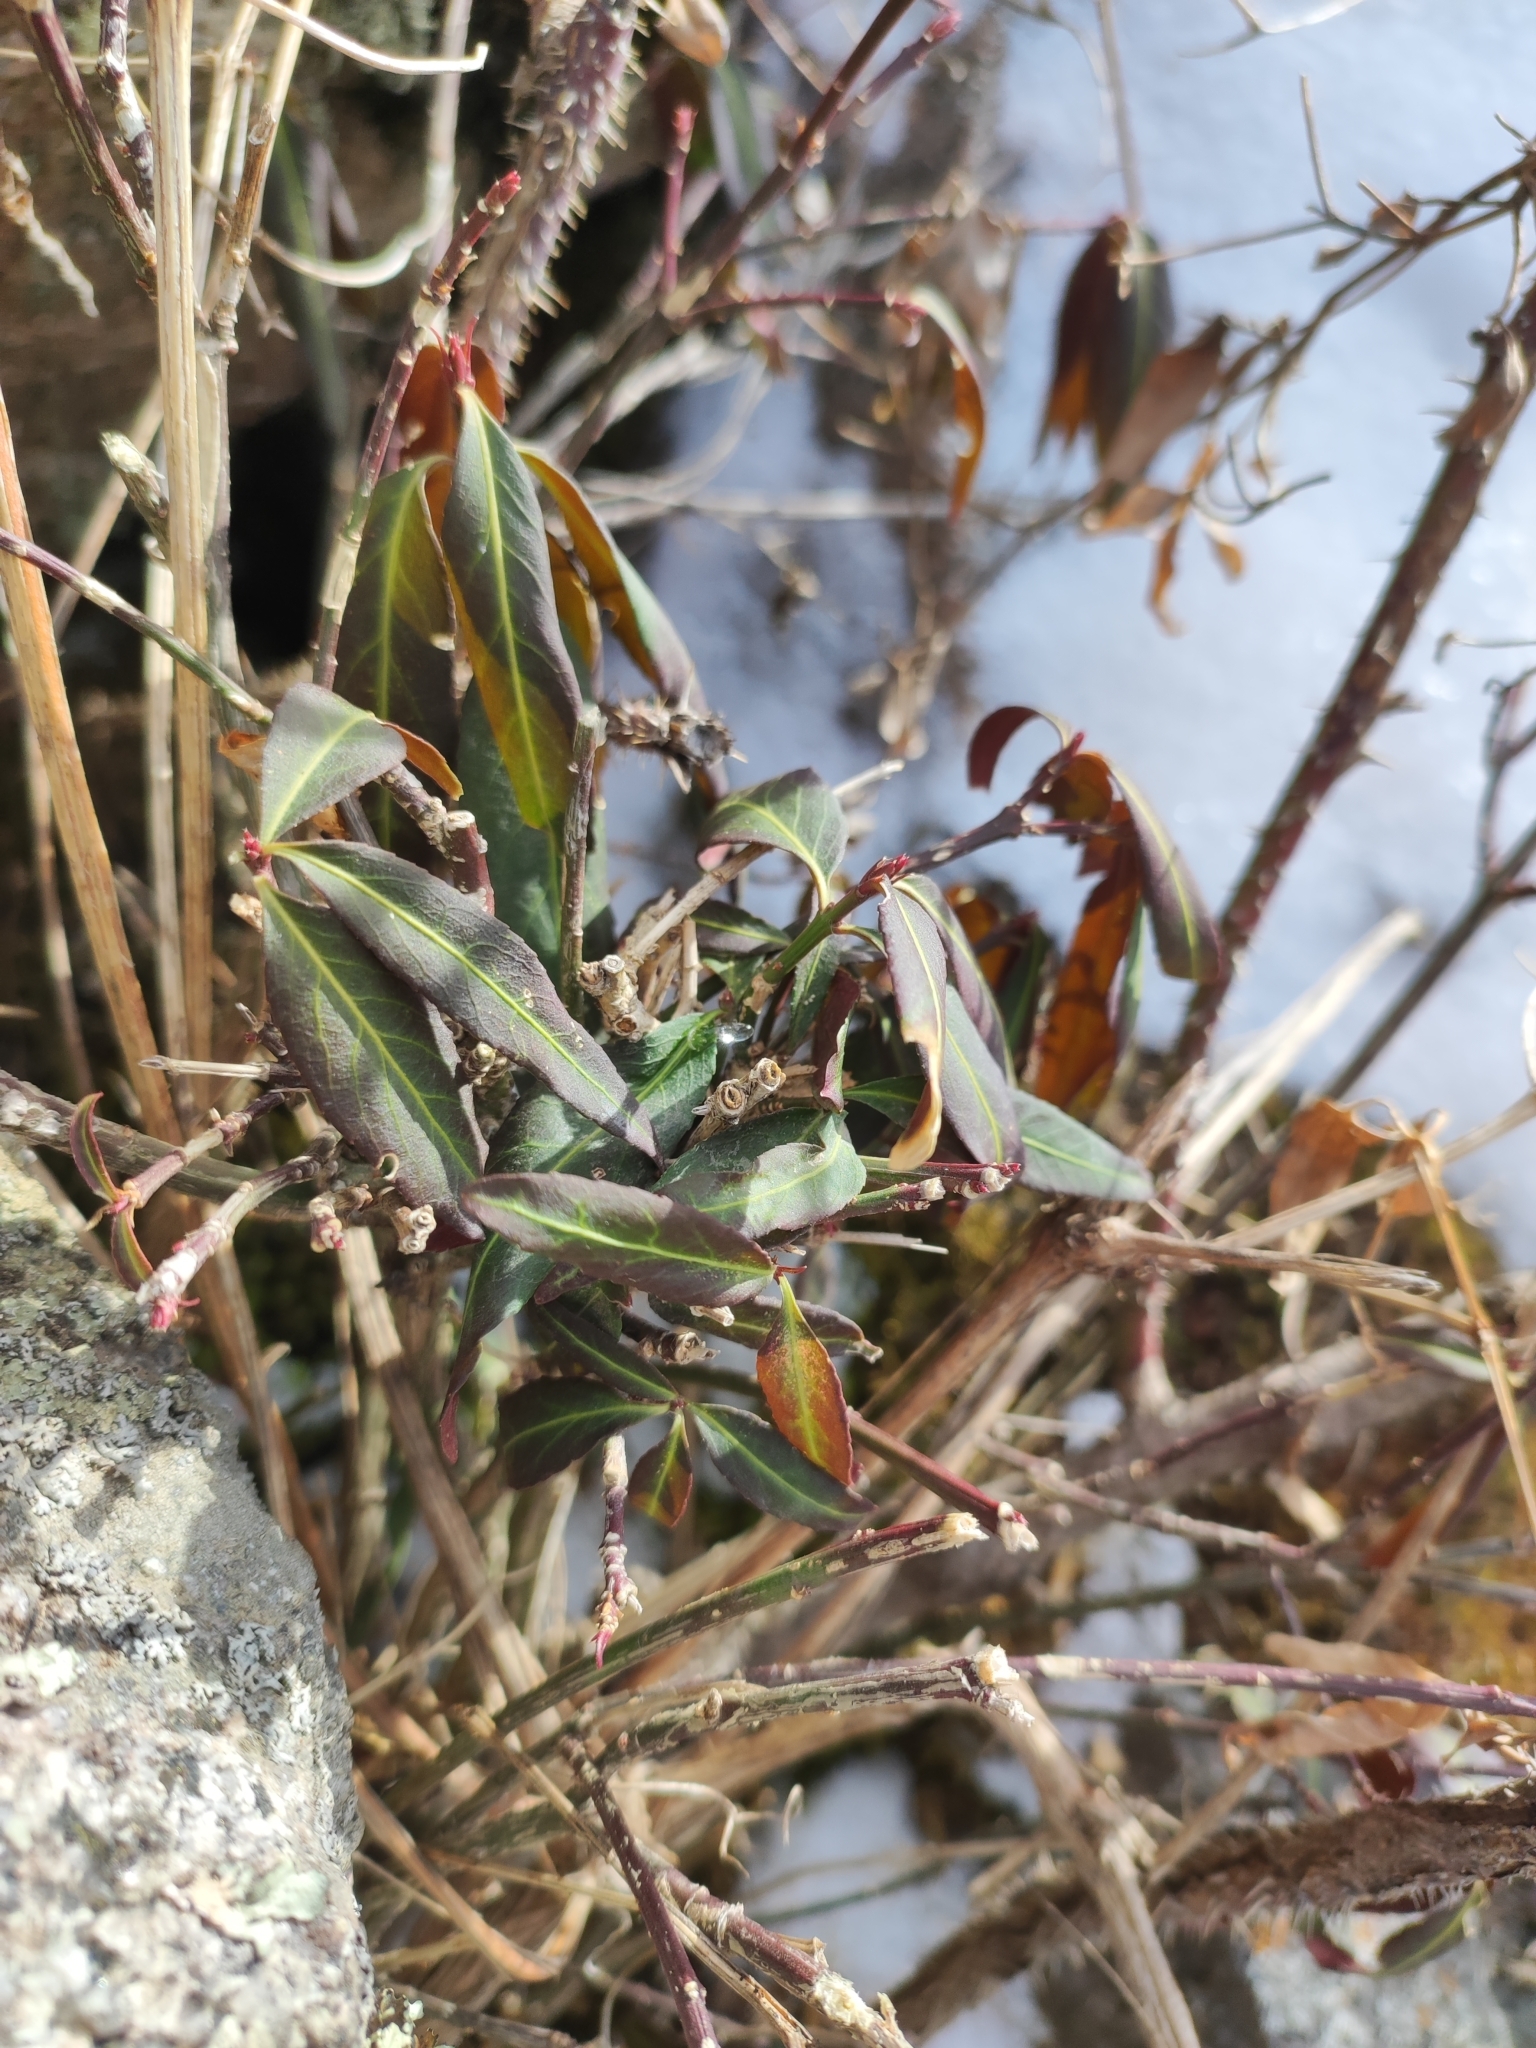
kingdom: Plantae
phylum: Tracheophyta
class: Magnoliopsida
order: Celastrales
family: Celastraceae
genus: Euonymus
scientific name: Euonymus semenovii
